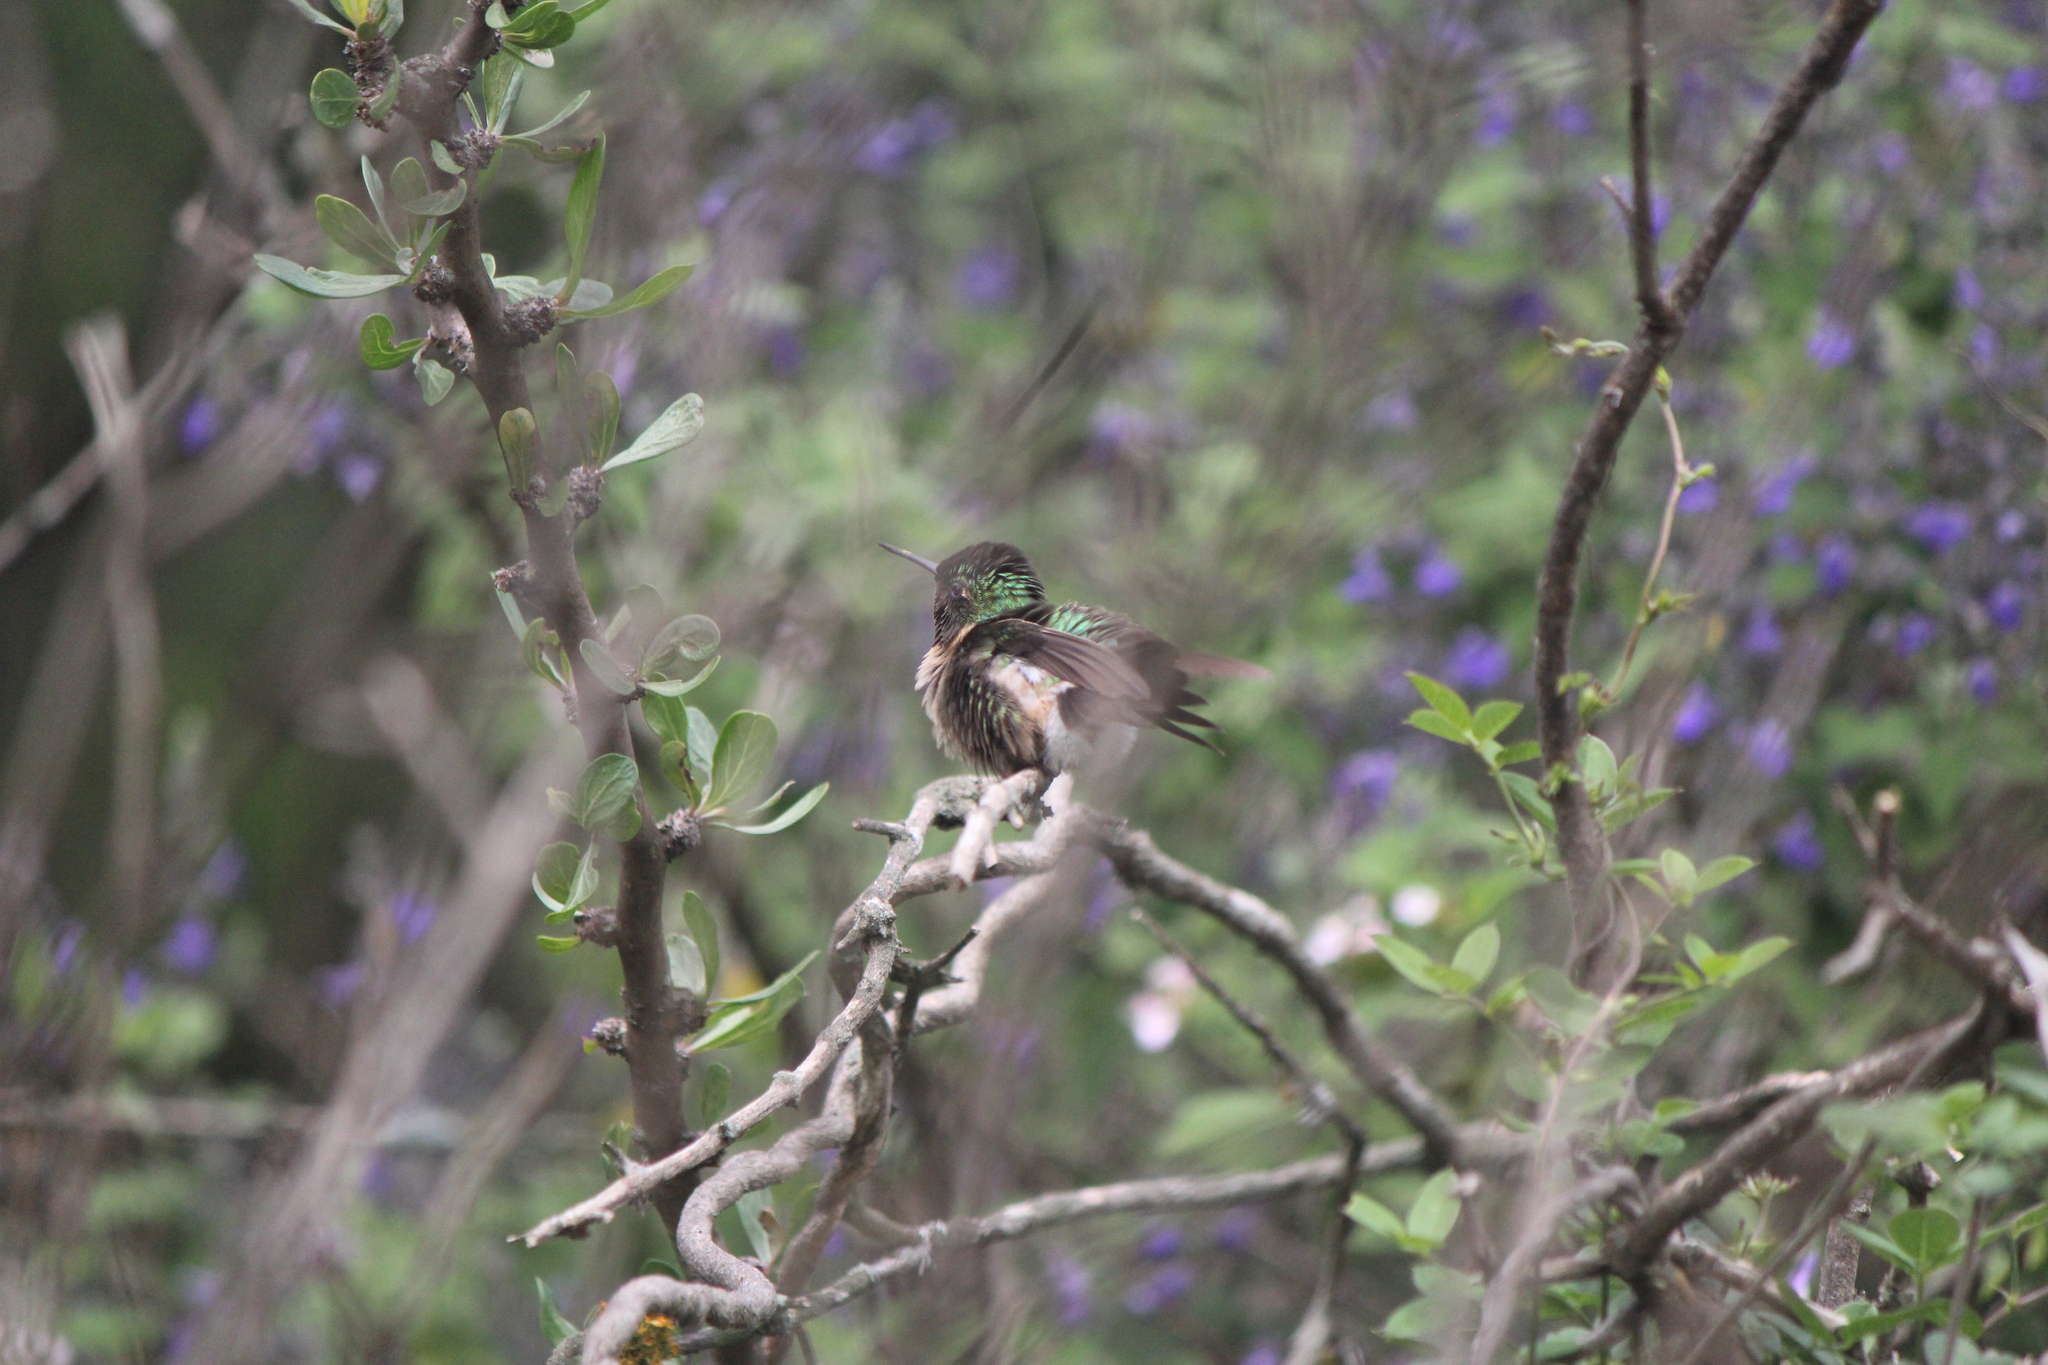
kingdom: Animalia
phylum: Chordata
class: Aves
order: Apodiformes
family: Trochilidae
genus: Archilochus
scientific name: Archilochus colubris
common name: Ruby-throated hummingbird
